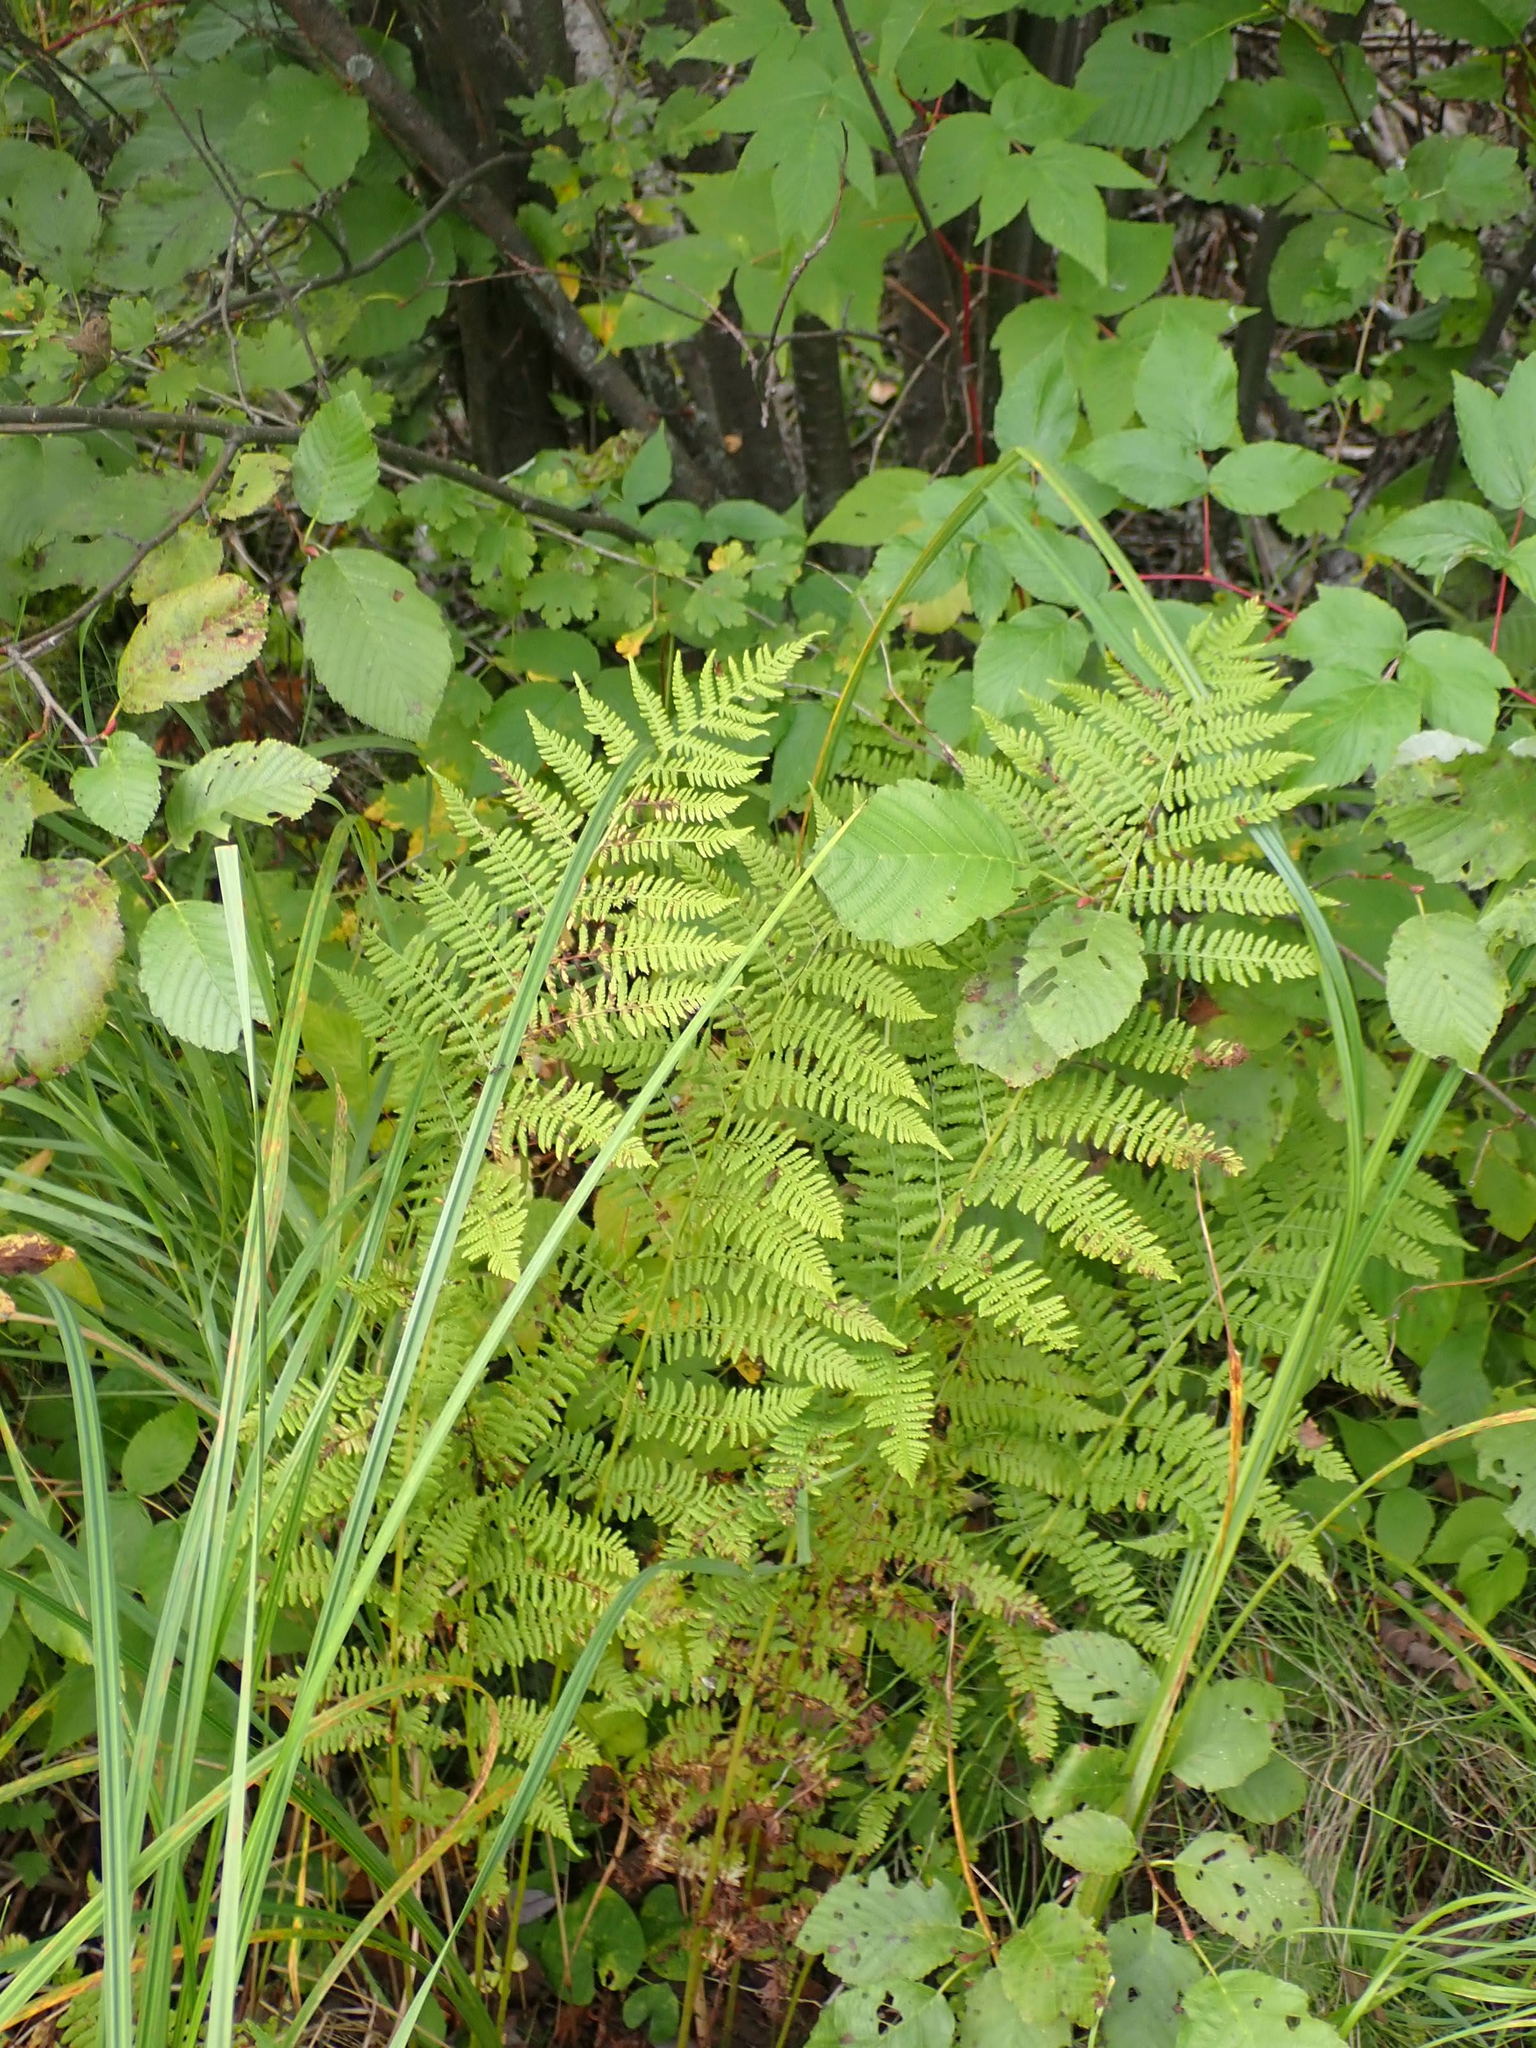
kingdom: Plantae
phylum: Tracheophyta
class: Polypodiopsida
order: Polypodiales
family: Athyriaceae
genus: Athyrium
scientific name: Athyrium angustum
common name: Northern lady fern
